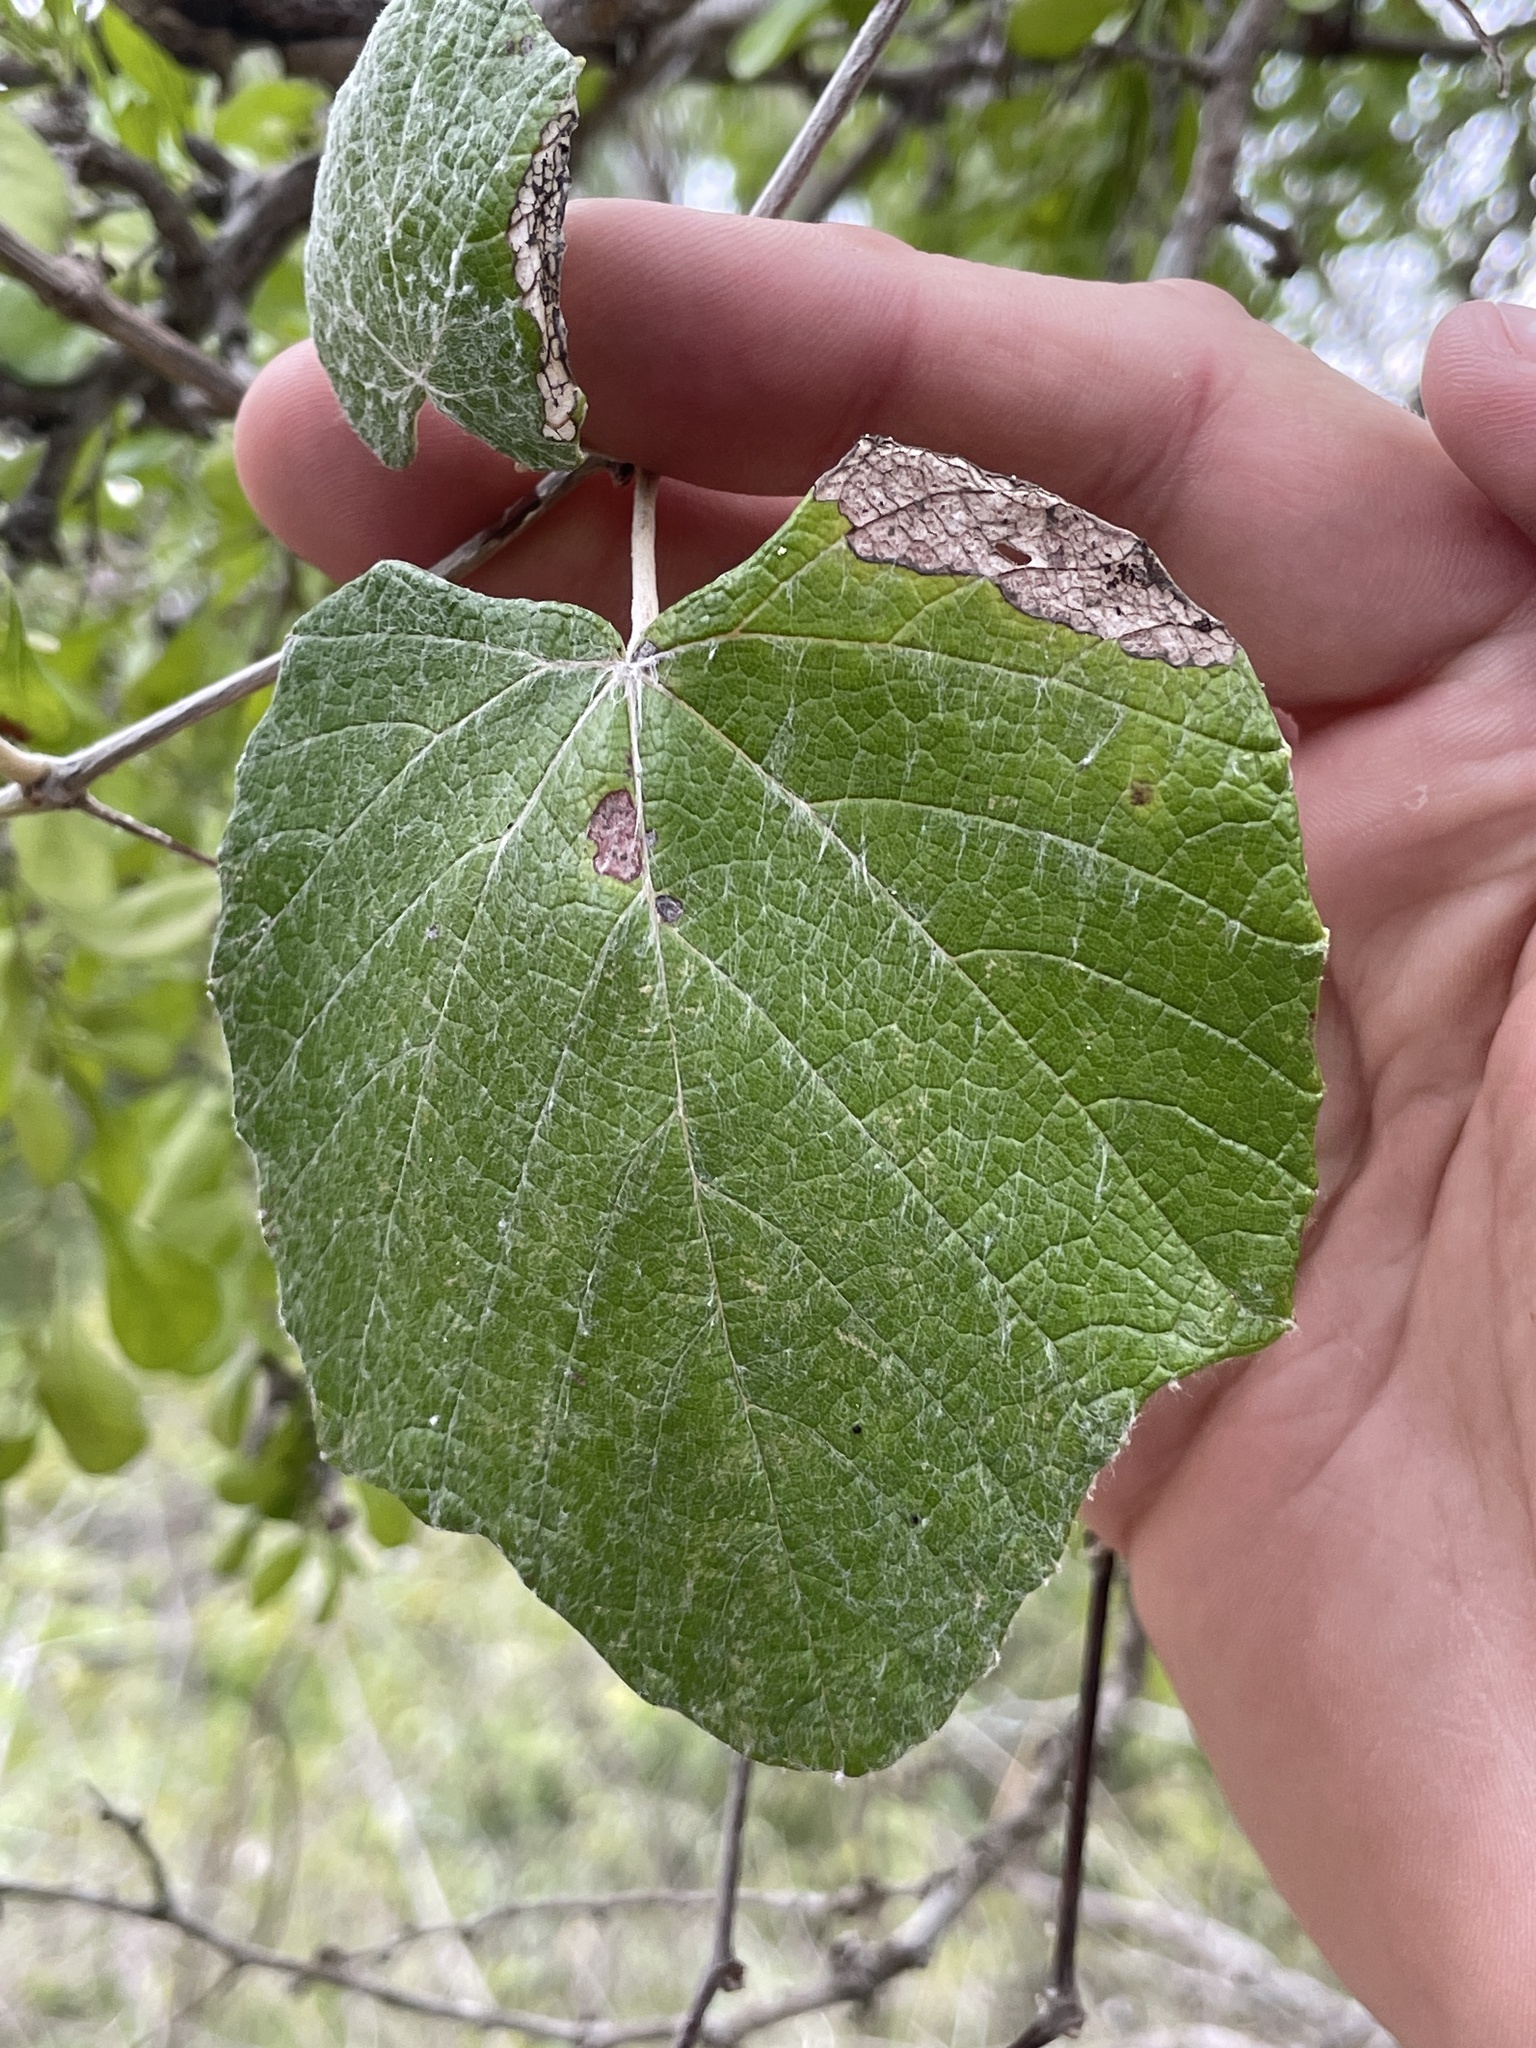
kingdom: Plantae
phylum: Tracheophyta
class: Magnoliopsida
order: Vitales
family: Vitaceae
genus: Vitis
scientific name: Vitis mustangensis
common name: Mustang grape
